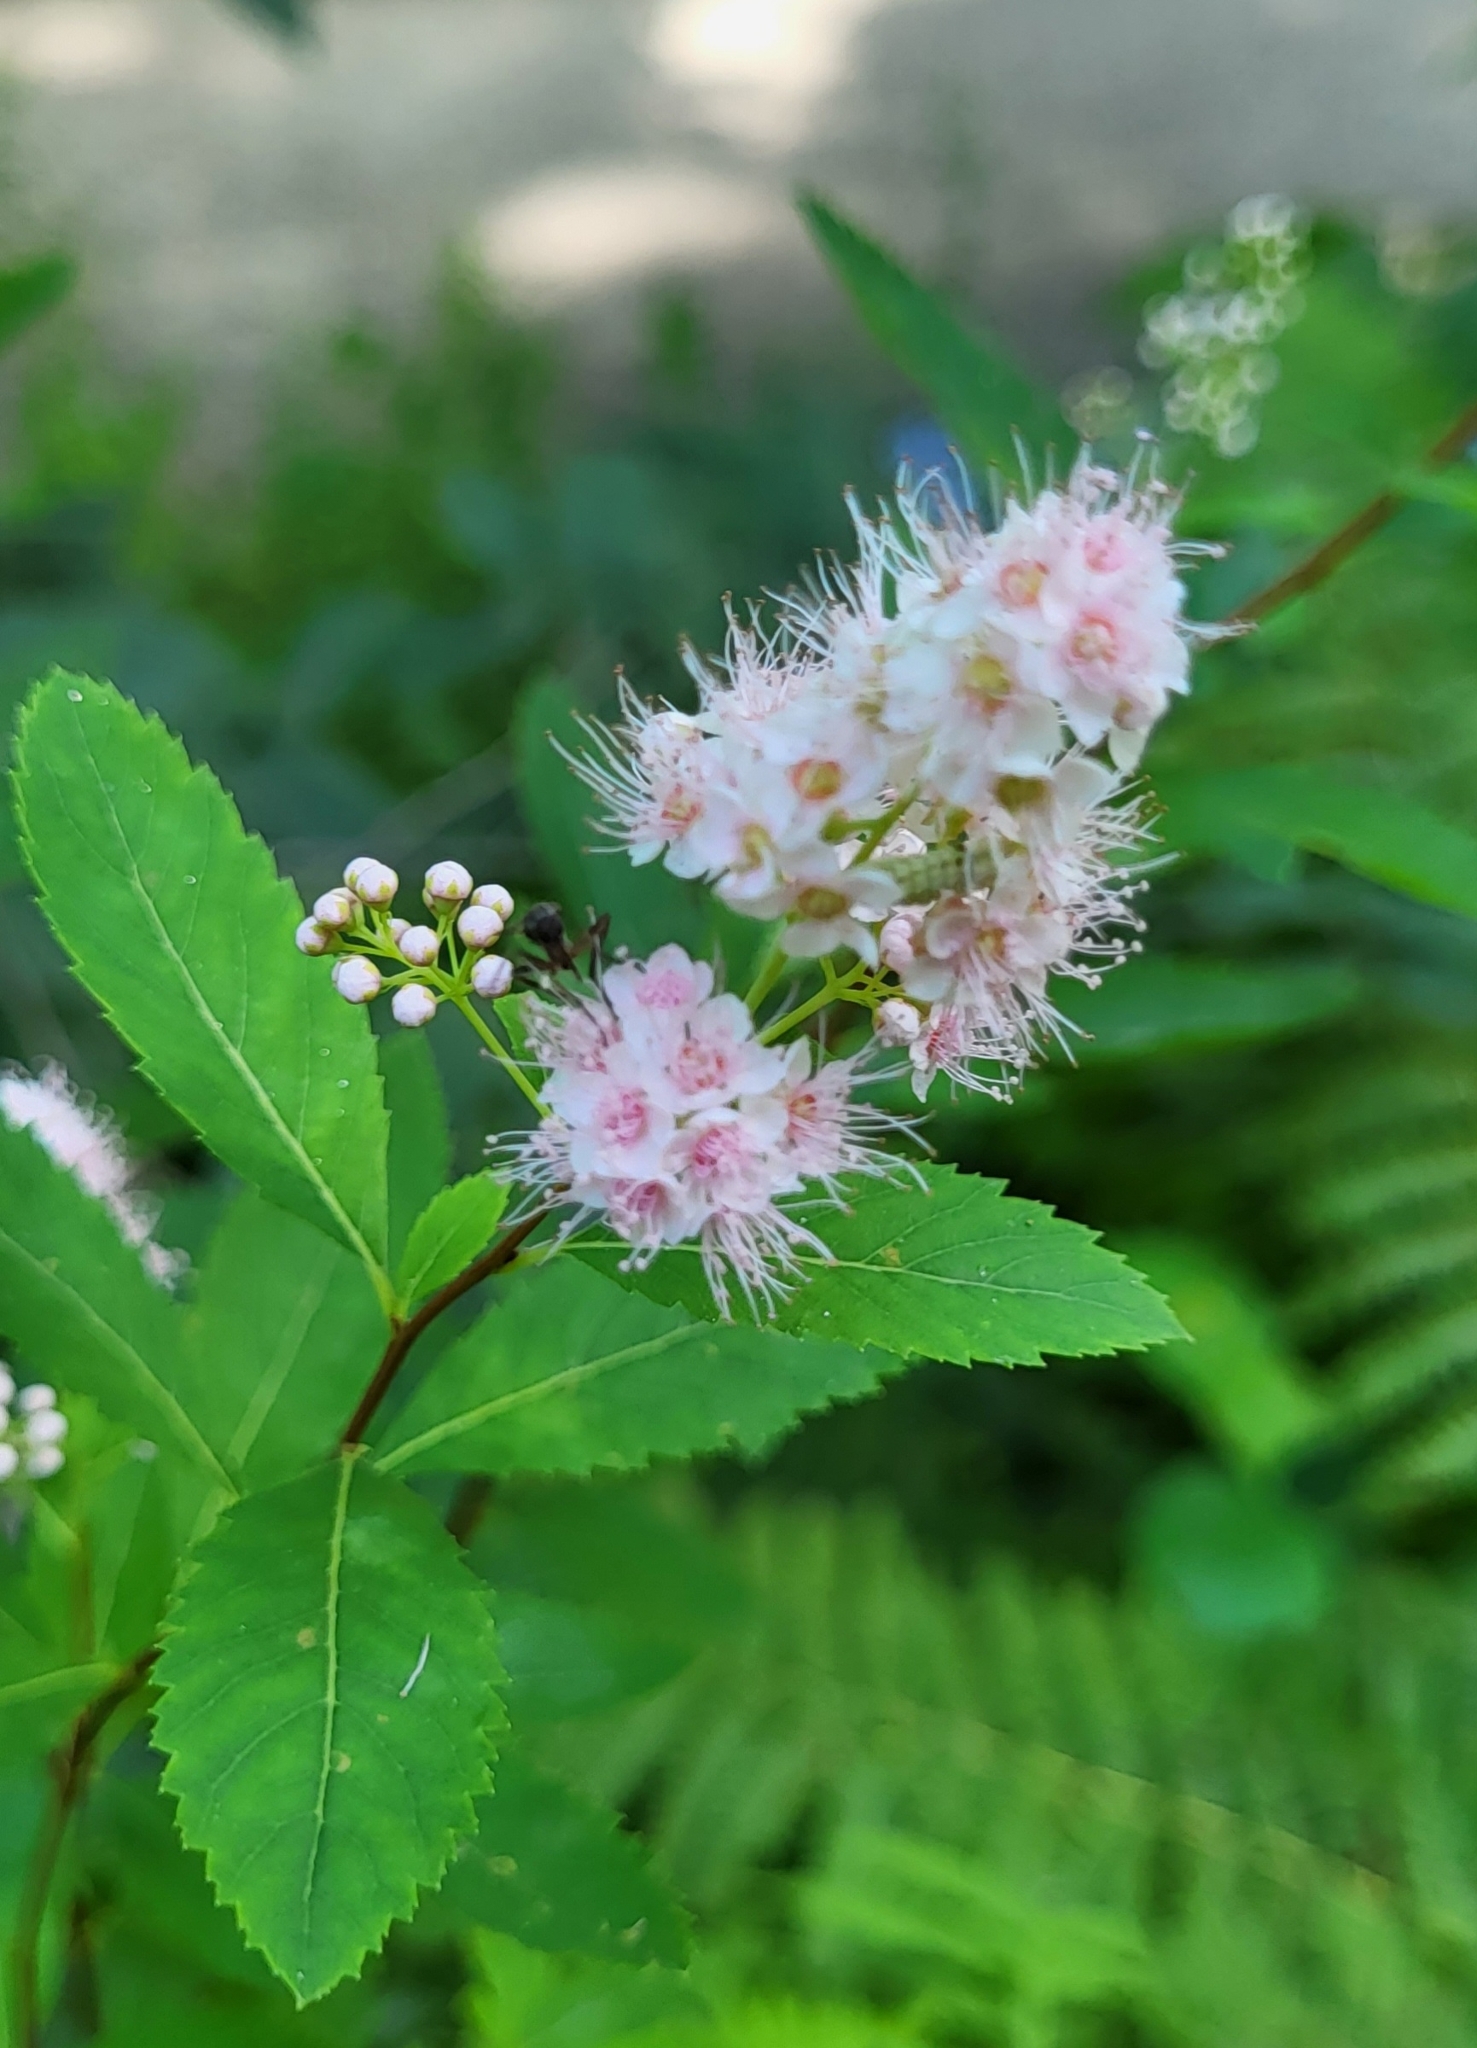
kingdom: Plantae
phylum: Tracheophyta
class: Magnoliopsida
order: Rosales
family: Rosaceae
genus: Spiraea
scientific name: Spiraea alba
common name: Pale bridewort
